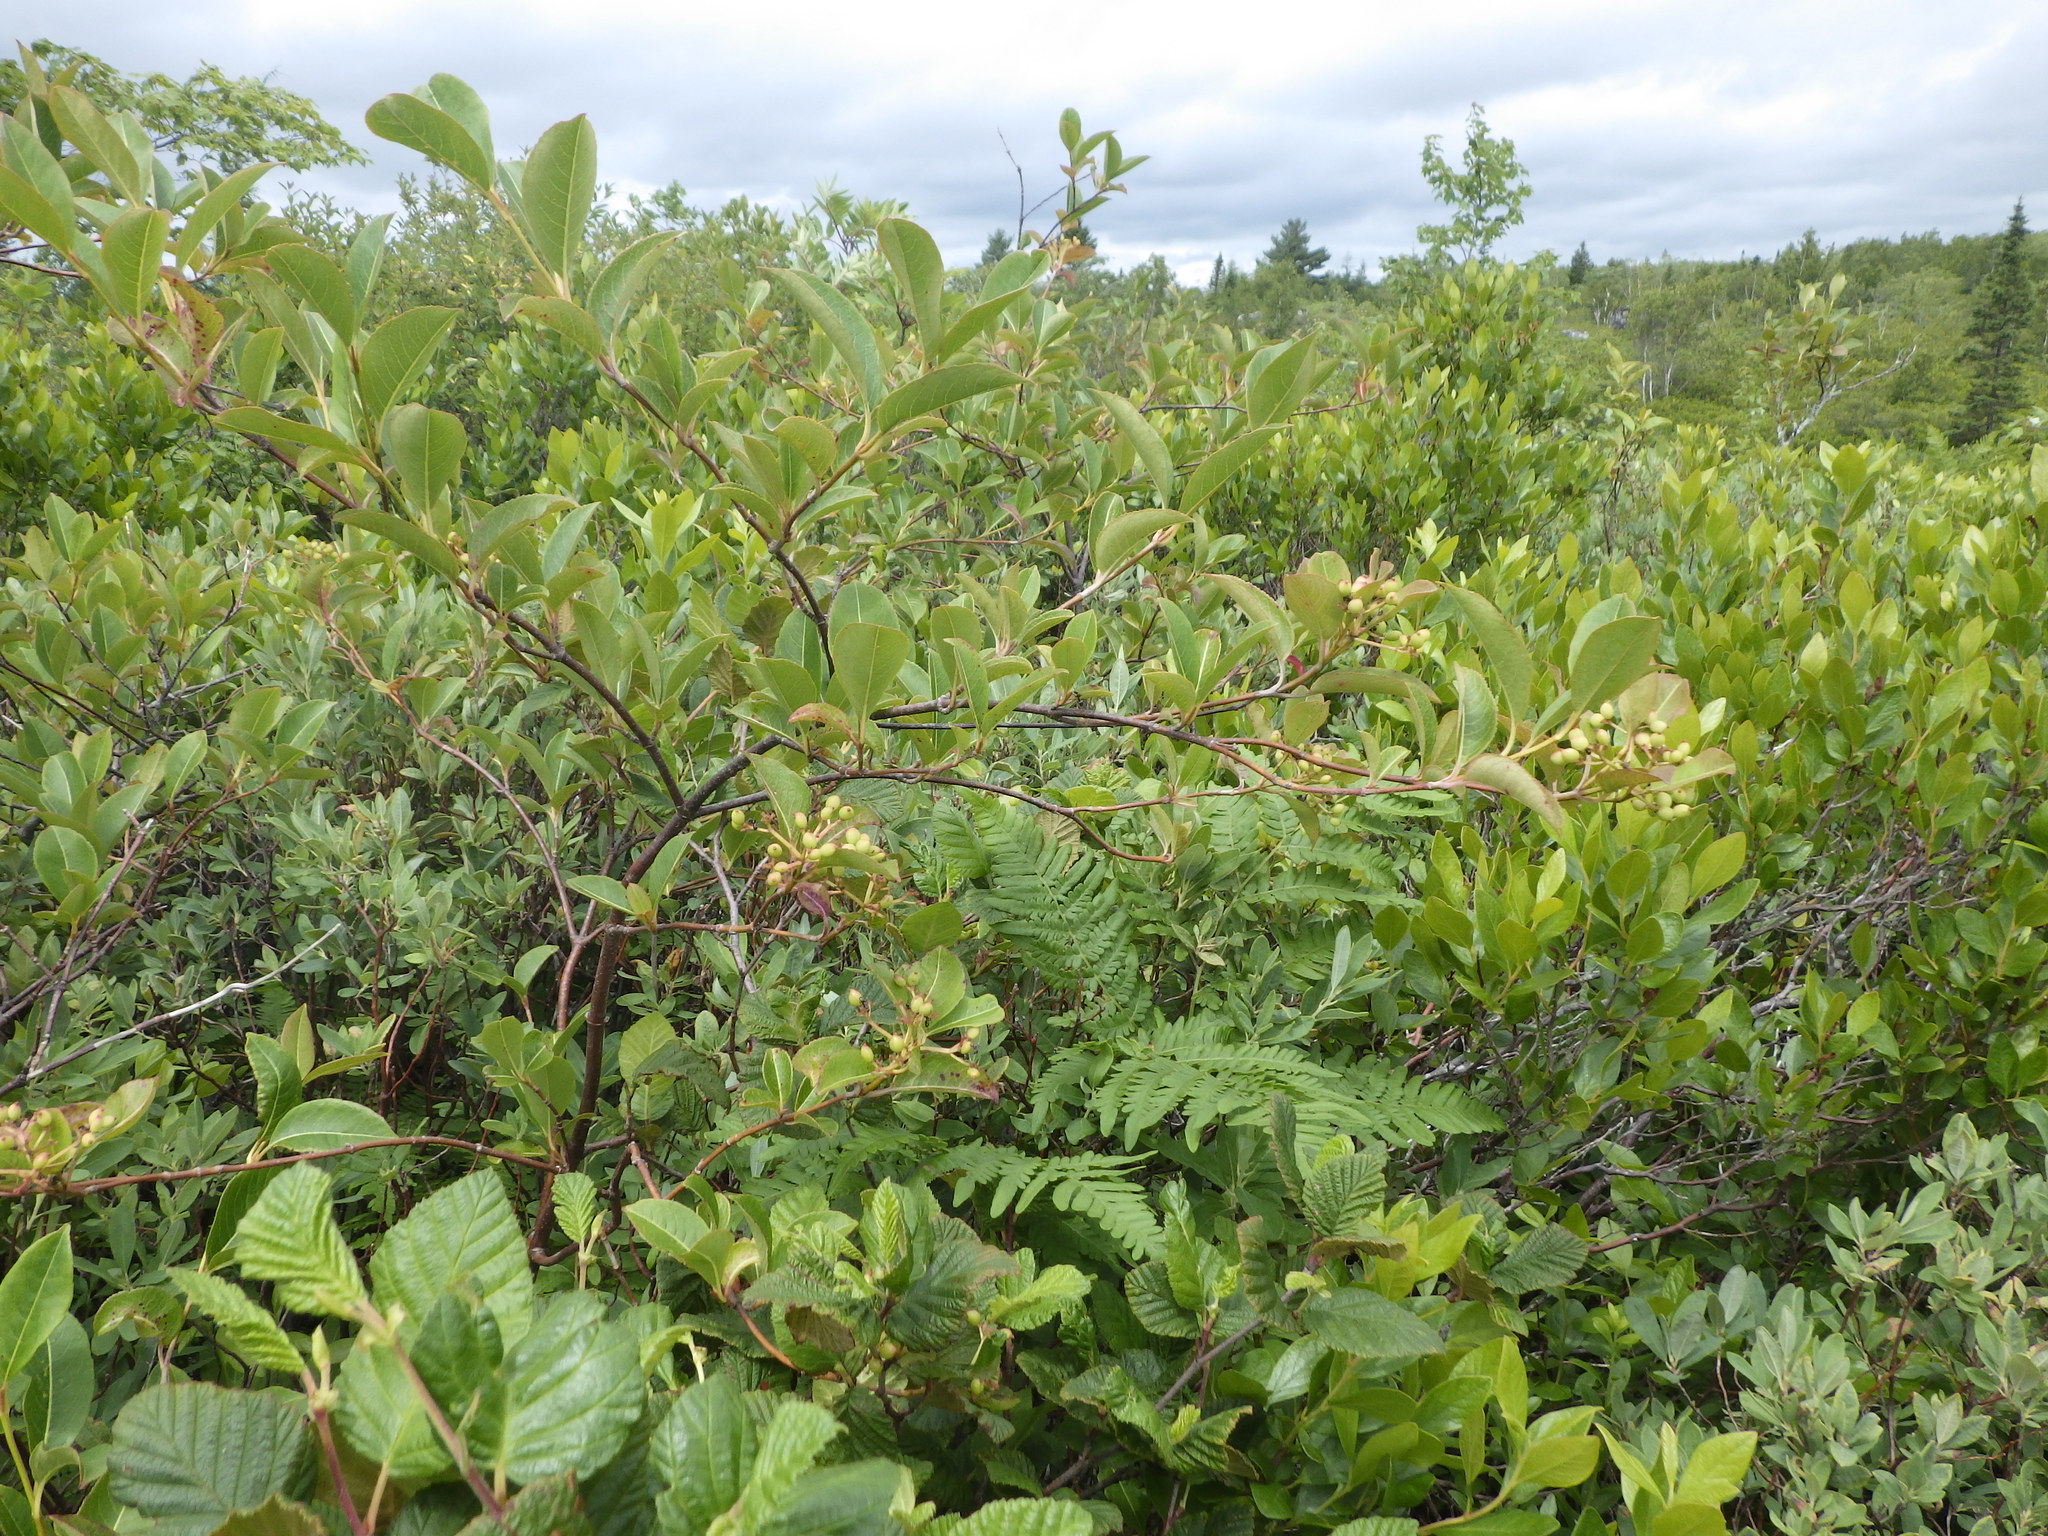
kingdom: Plantae
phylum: Tracheophyta
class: Magnoliopsida
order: Dipsacales
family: Viburnaceae
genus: Viburnum
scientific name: Viburnum cassinoides
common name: Swamp haw
